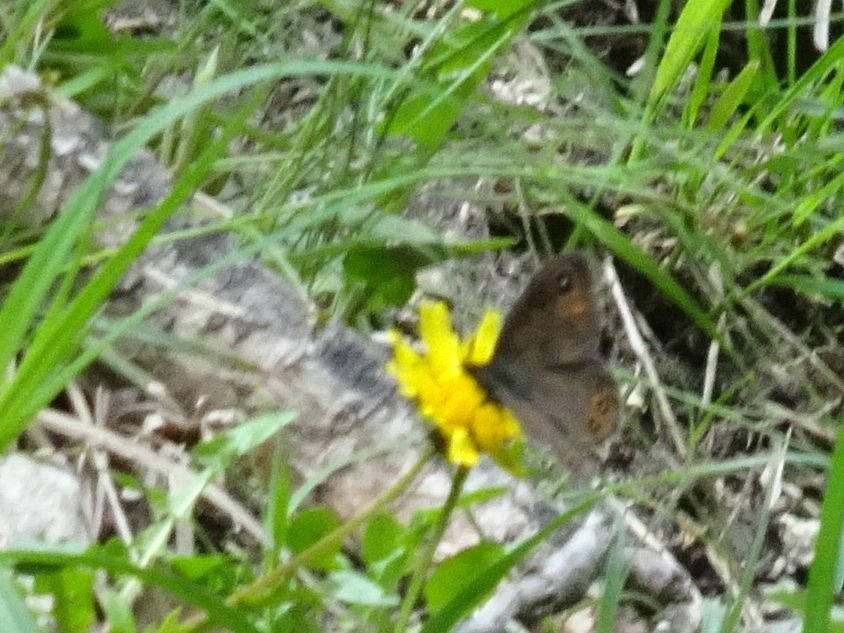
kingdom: Animalia
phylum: Arthropoda
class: Insecta
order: Lepidoptera
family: Nymphalidae
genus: Pararge
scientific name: Pararge petropolitana
